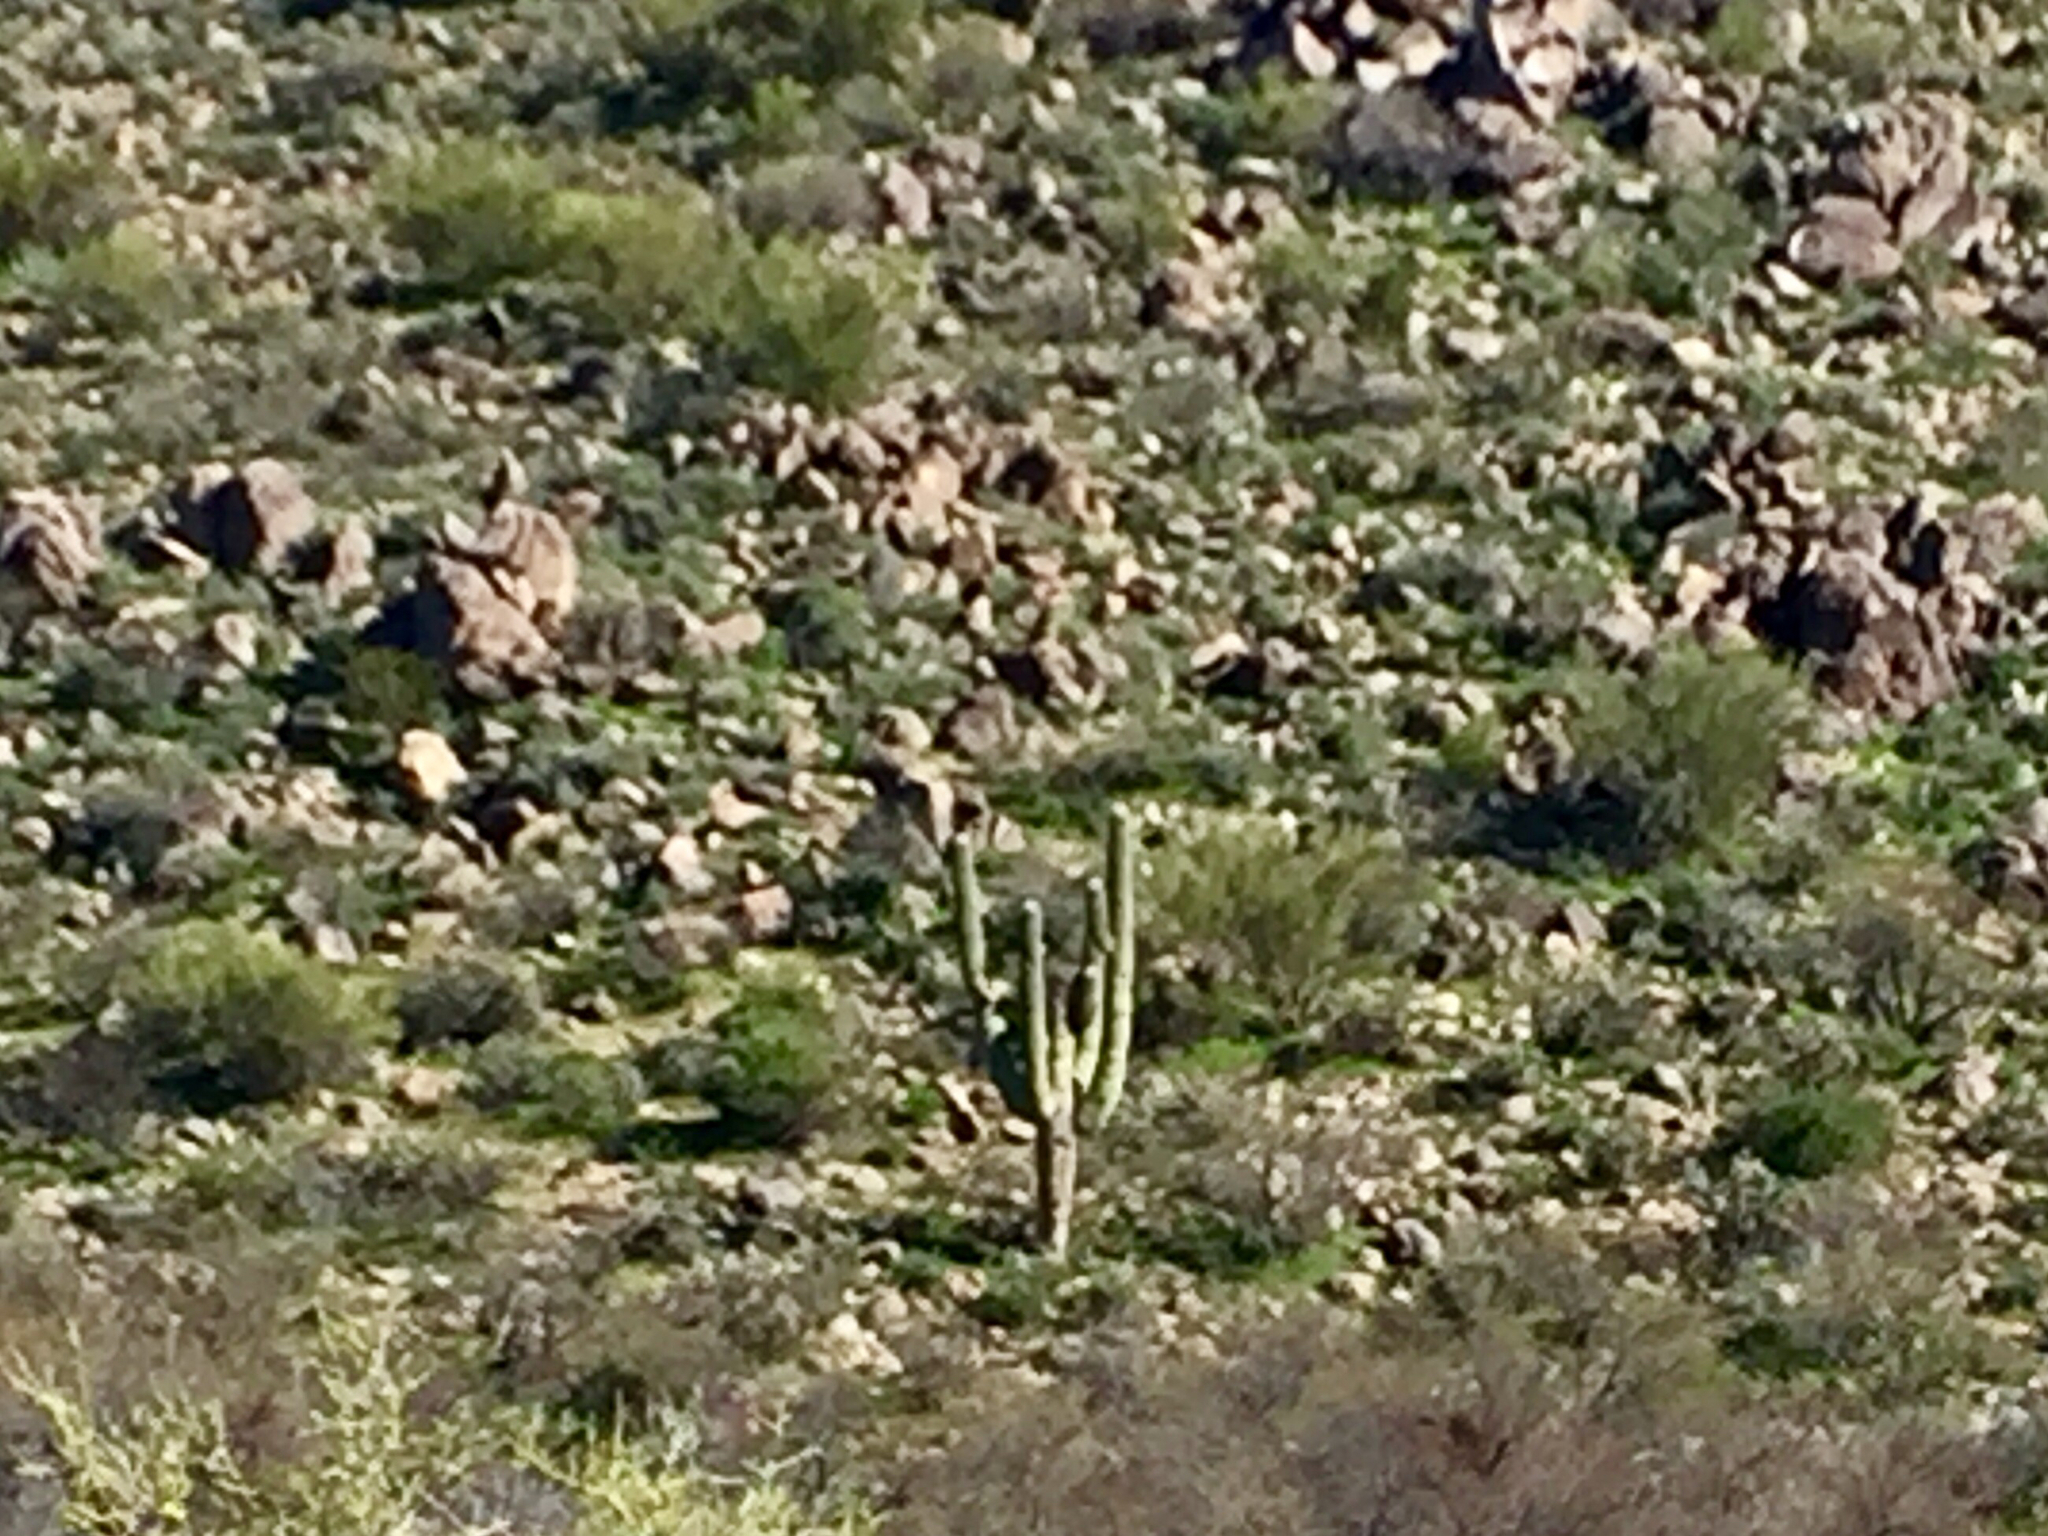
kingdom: Plantae
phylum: Tracheophyta
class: Magnoliopsida
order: Caryophyllales
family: Cactaceae
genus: Carnegiea
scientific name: Carnegiea gigantea
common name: Saguaro
